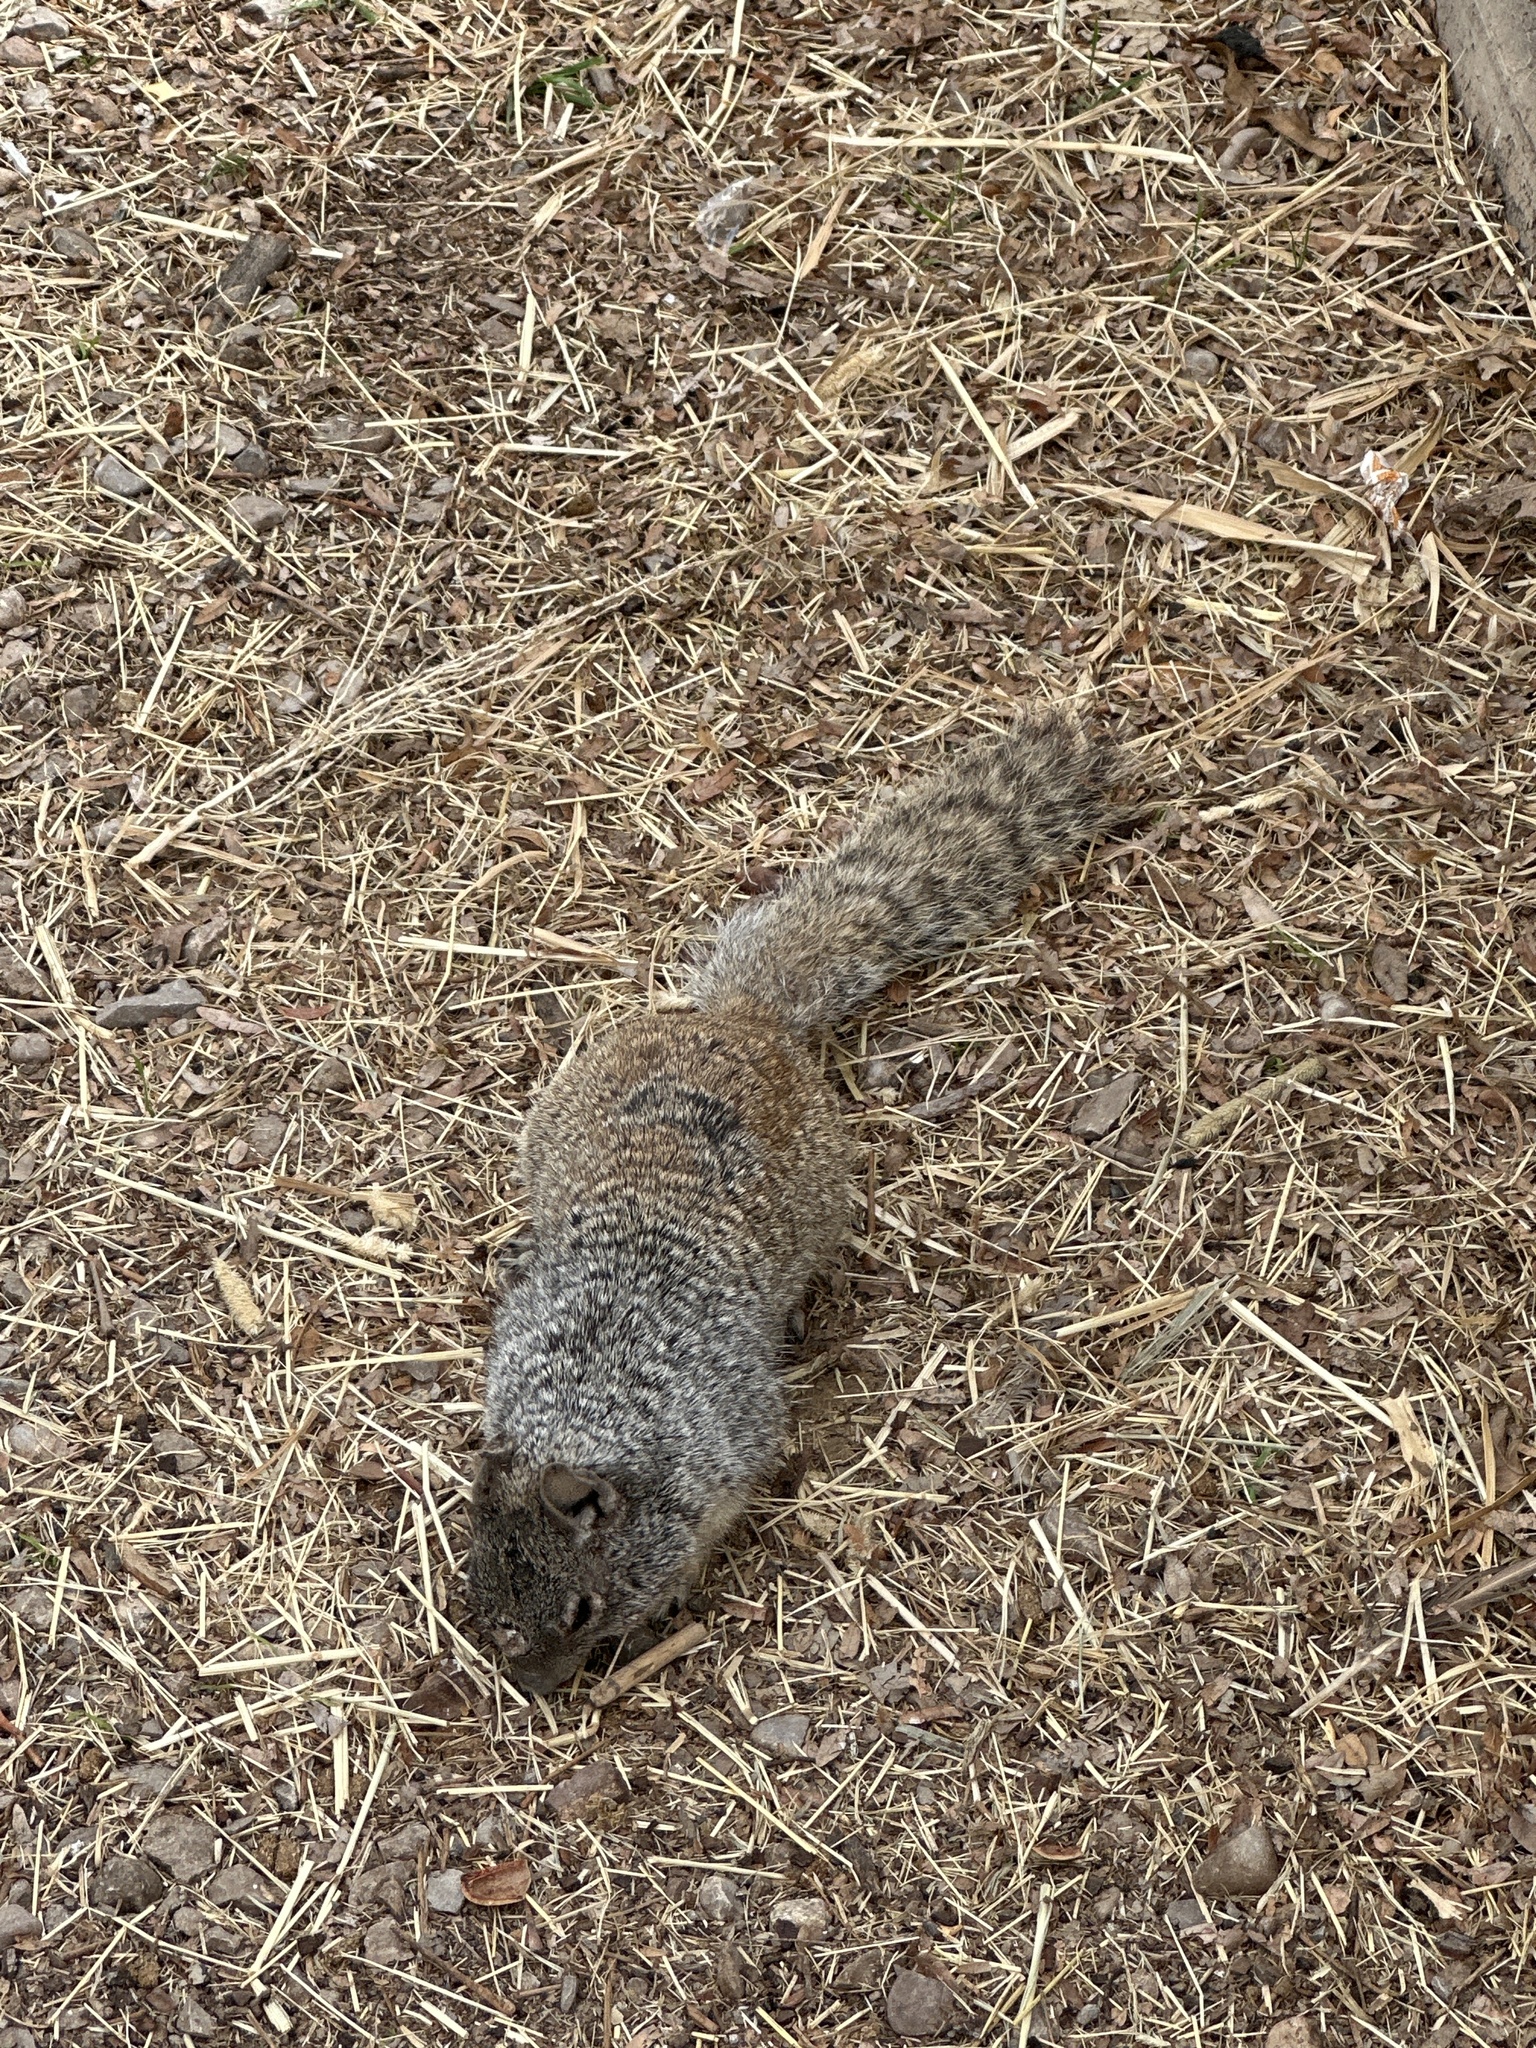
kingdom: Animalia
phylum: Chordata
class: Mammalia
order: Rodentia
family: Sciuridae
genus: Otospermophilus
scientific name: Otospermophilus variegatus
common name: Rock squirrel
